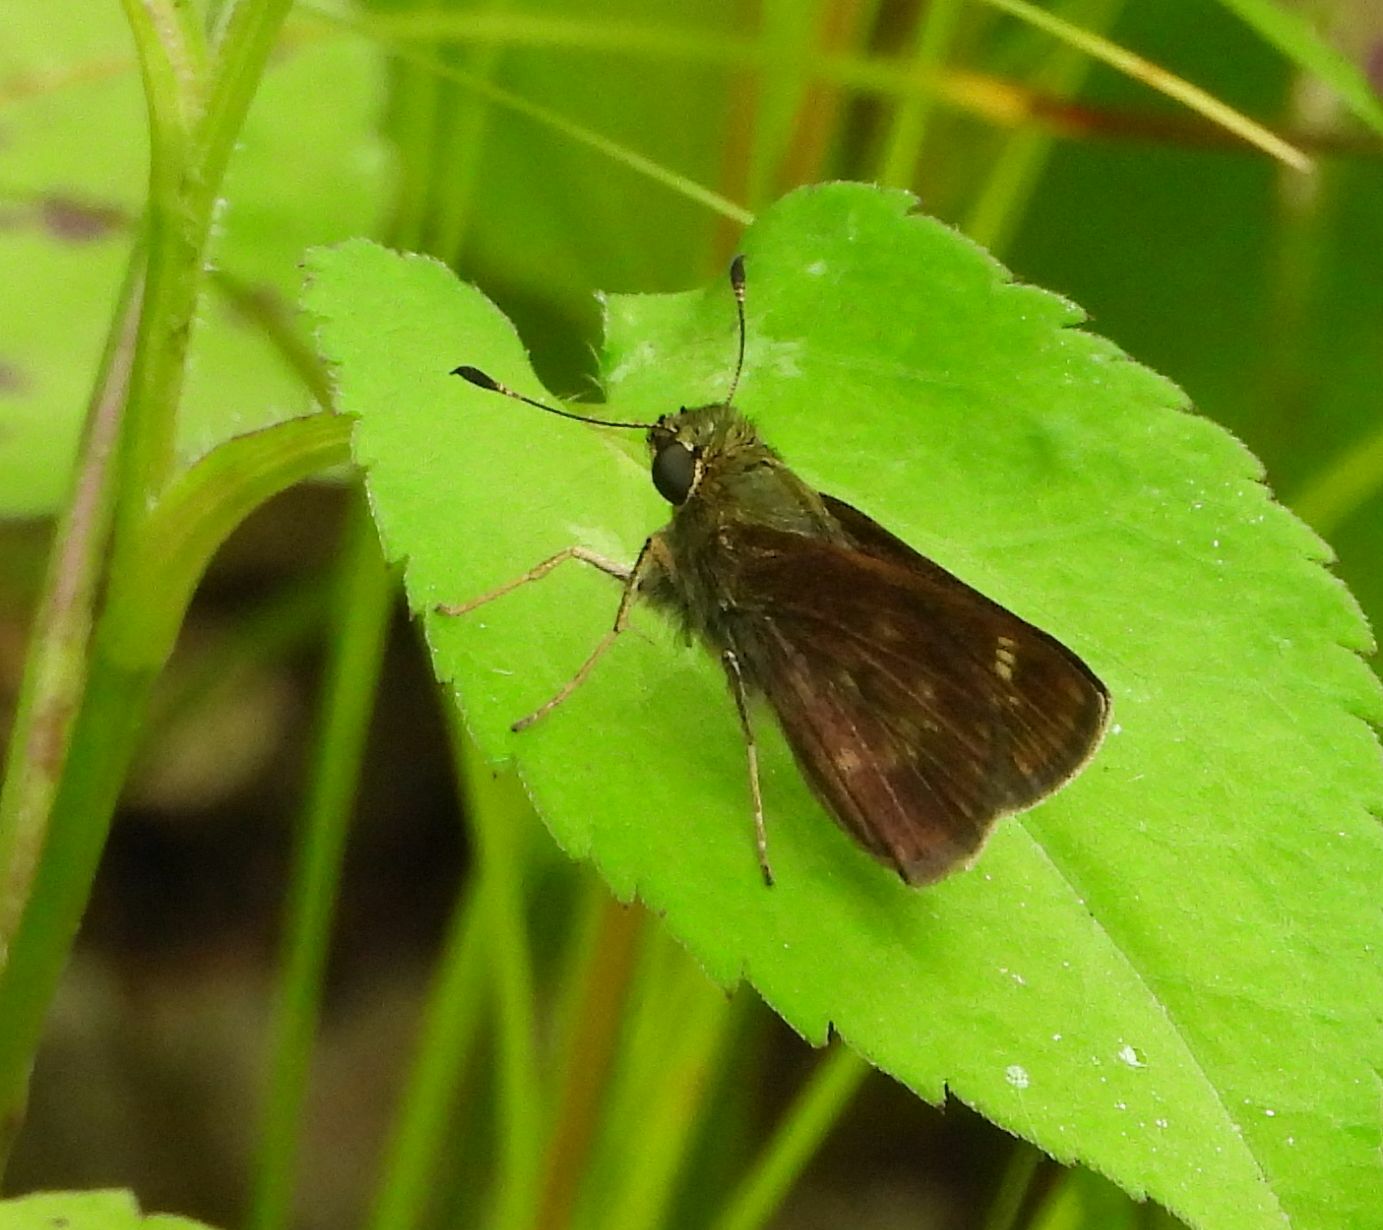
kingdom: Animalia
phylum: Arthropoda
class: Insecta
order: Lepidoptera
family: Hesperiidae
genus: Vernia
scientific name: Vernia verna
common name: Little glassywing
